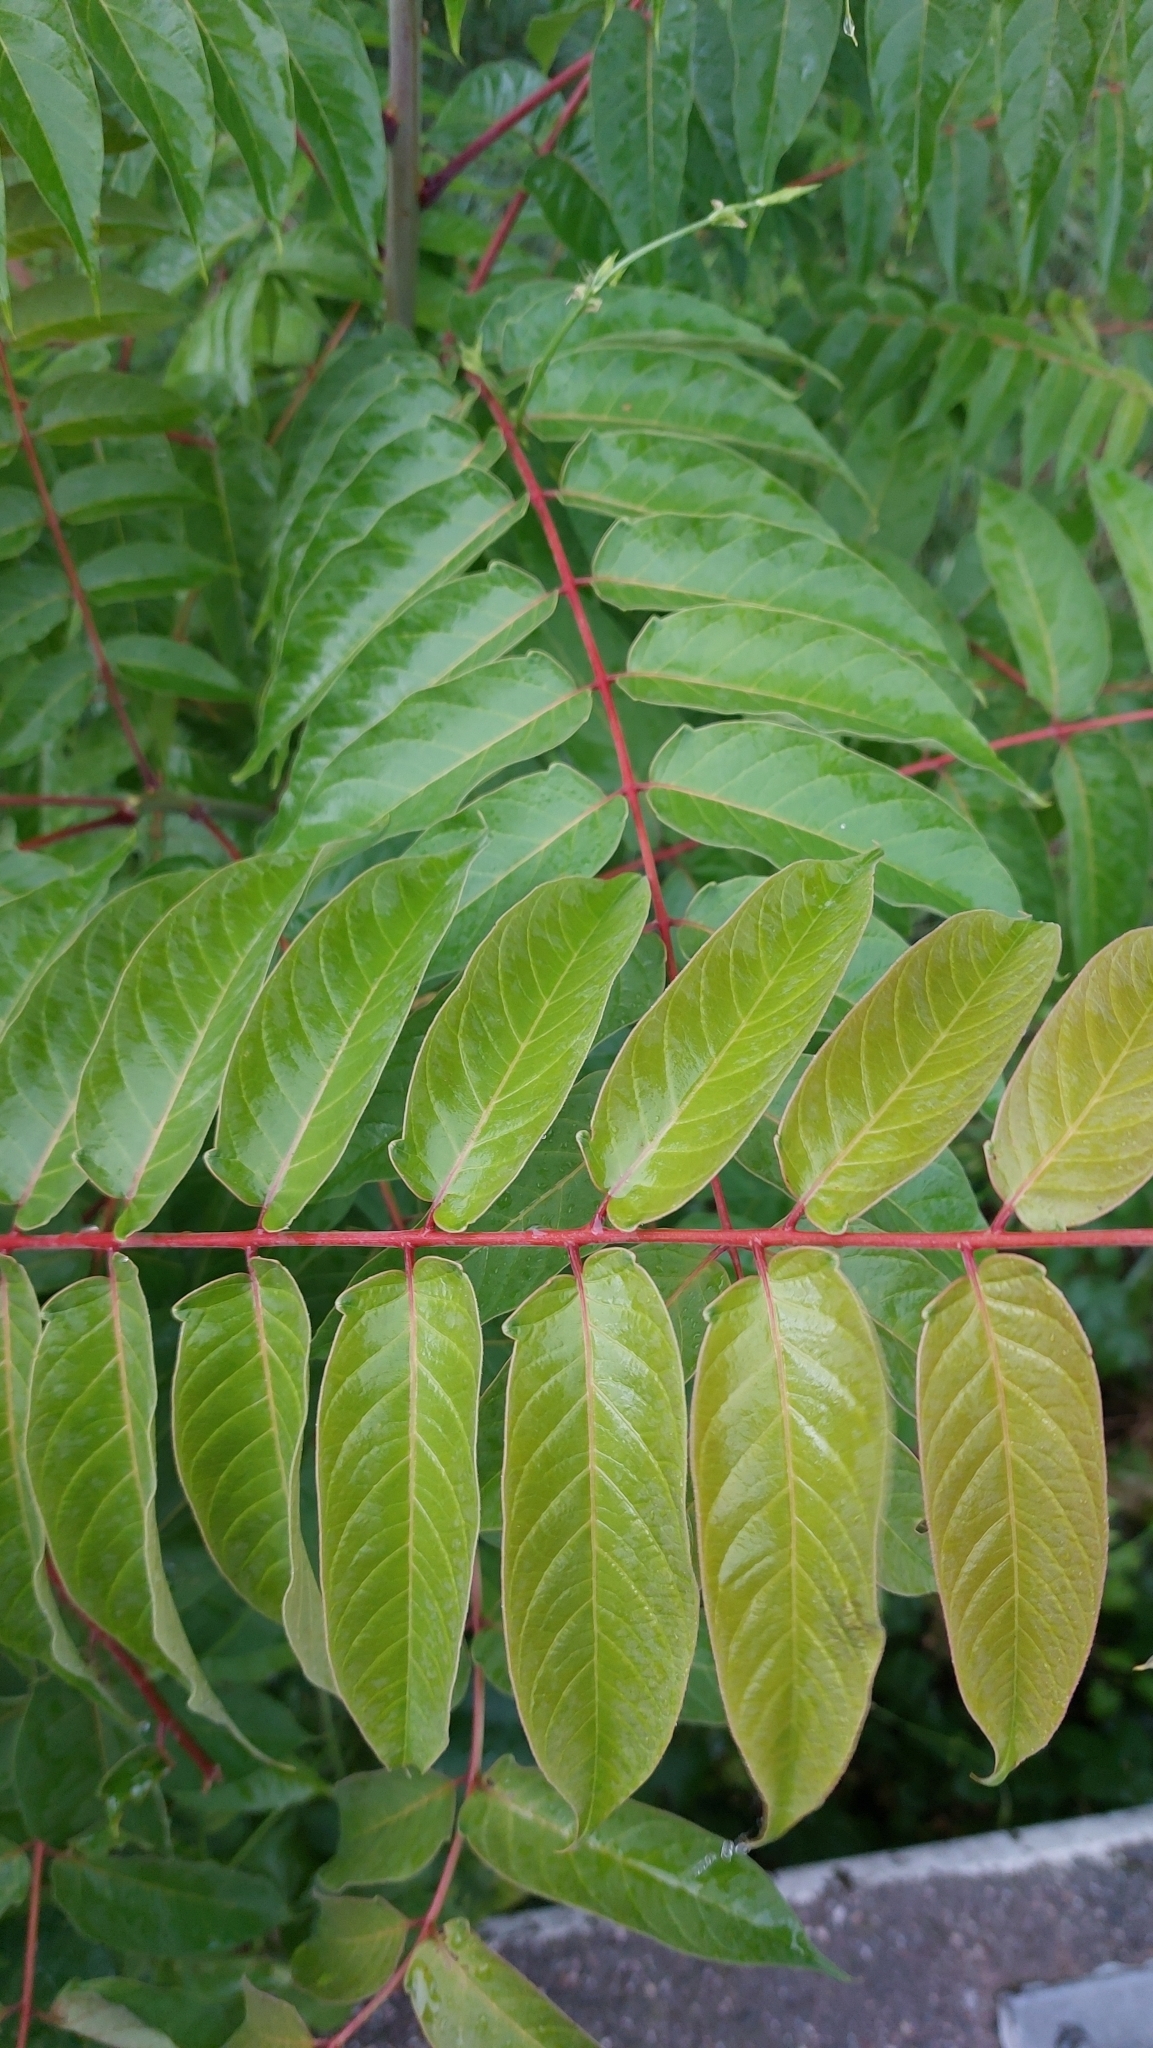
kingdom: Plantae
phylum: Tracheophyta
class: Magnoliopsida
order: Sapindales
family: Simaroubaceae
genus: Ailanthus
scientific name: Ailanthus altissima
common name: Tree-of-heaven
